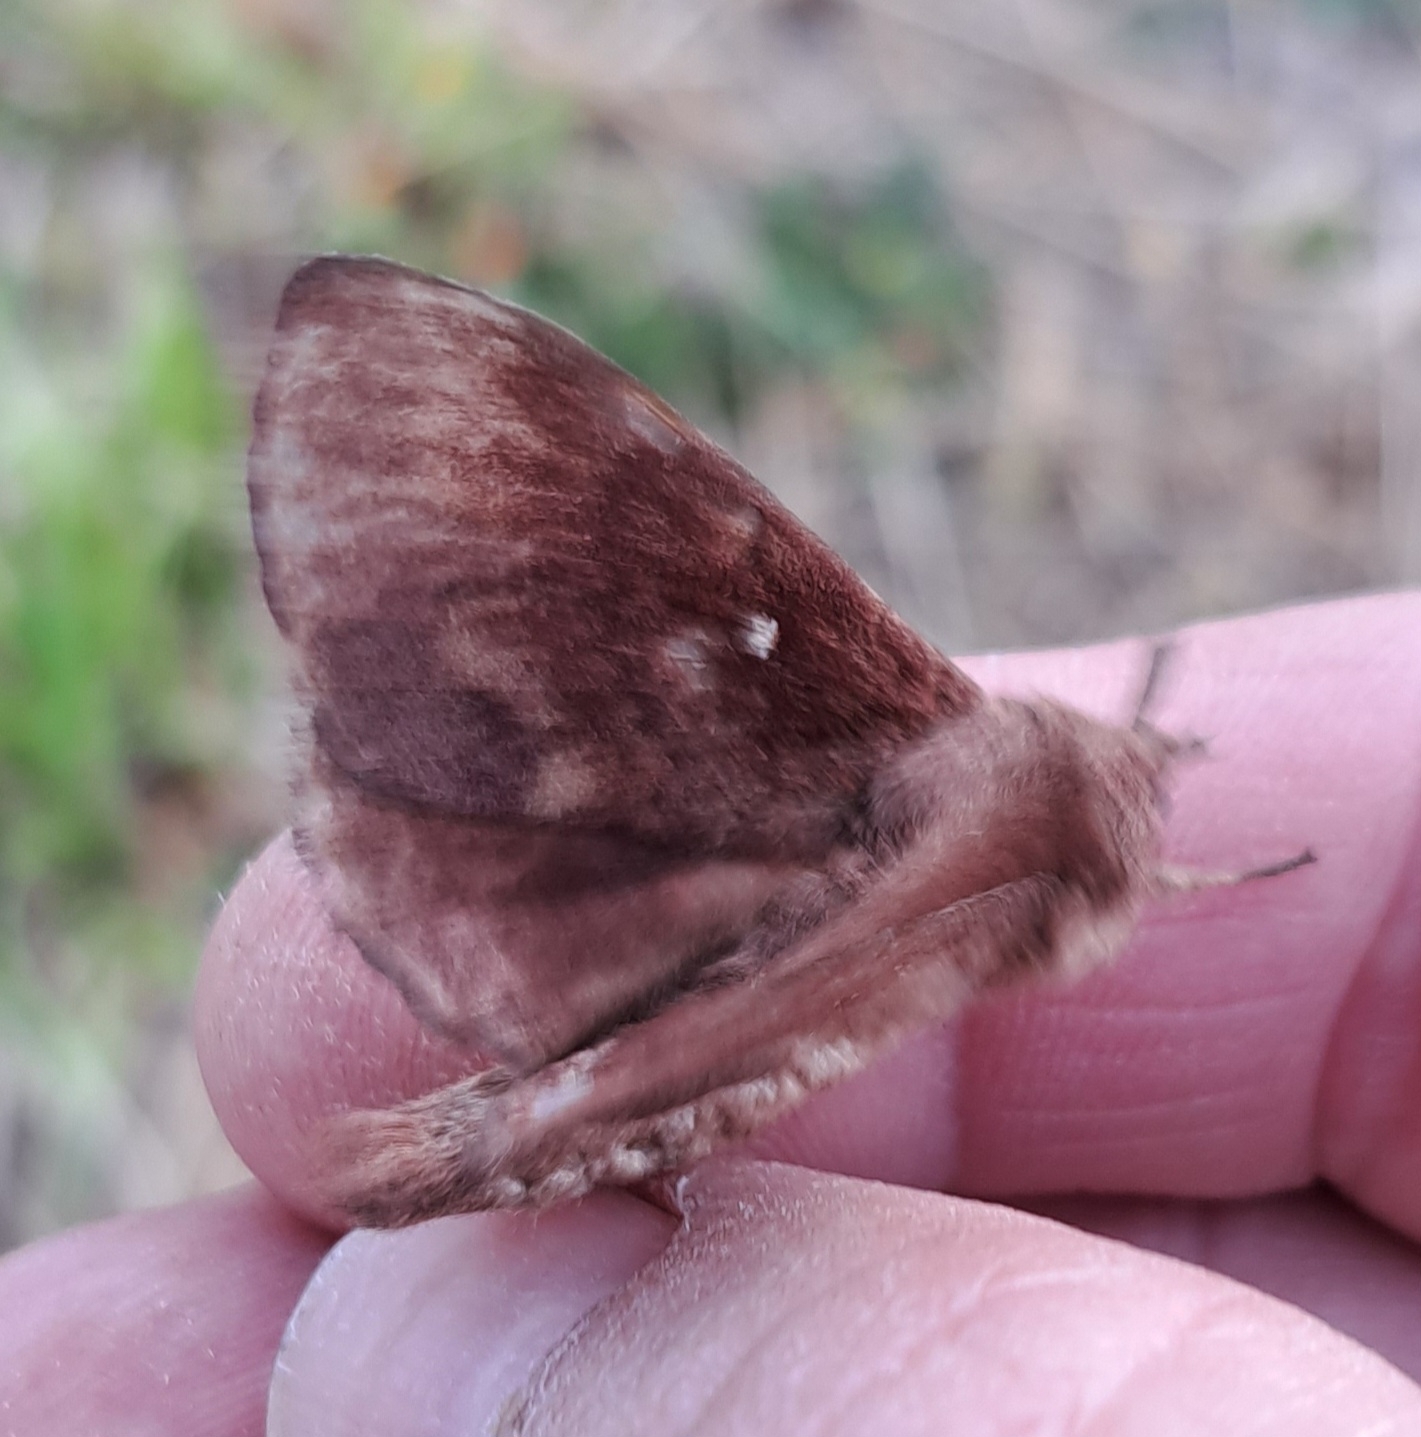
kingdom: Animalia
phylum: Arthropoda
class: Insecta
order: Lepidoptera
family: Lasiocampidae
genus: Dendrolimus
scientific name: Dendrolimus pini
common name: Pine-tree lappet
